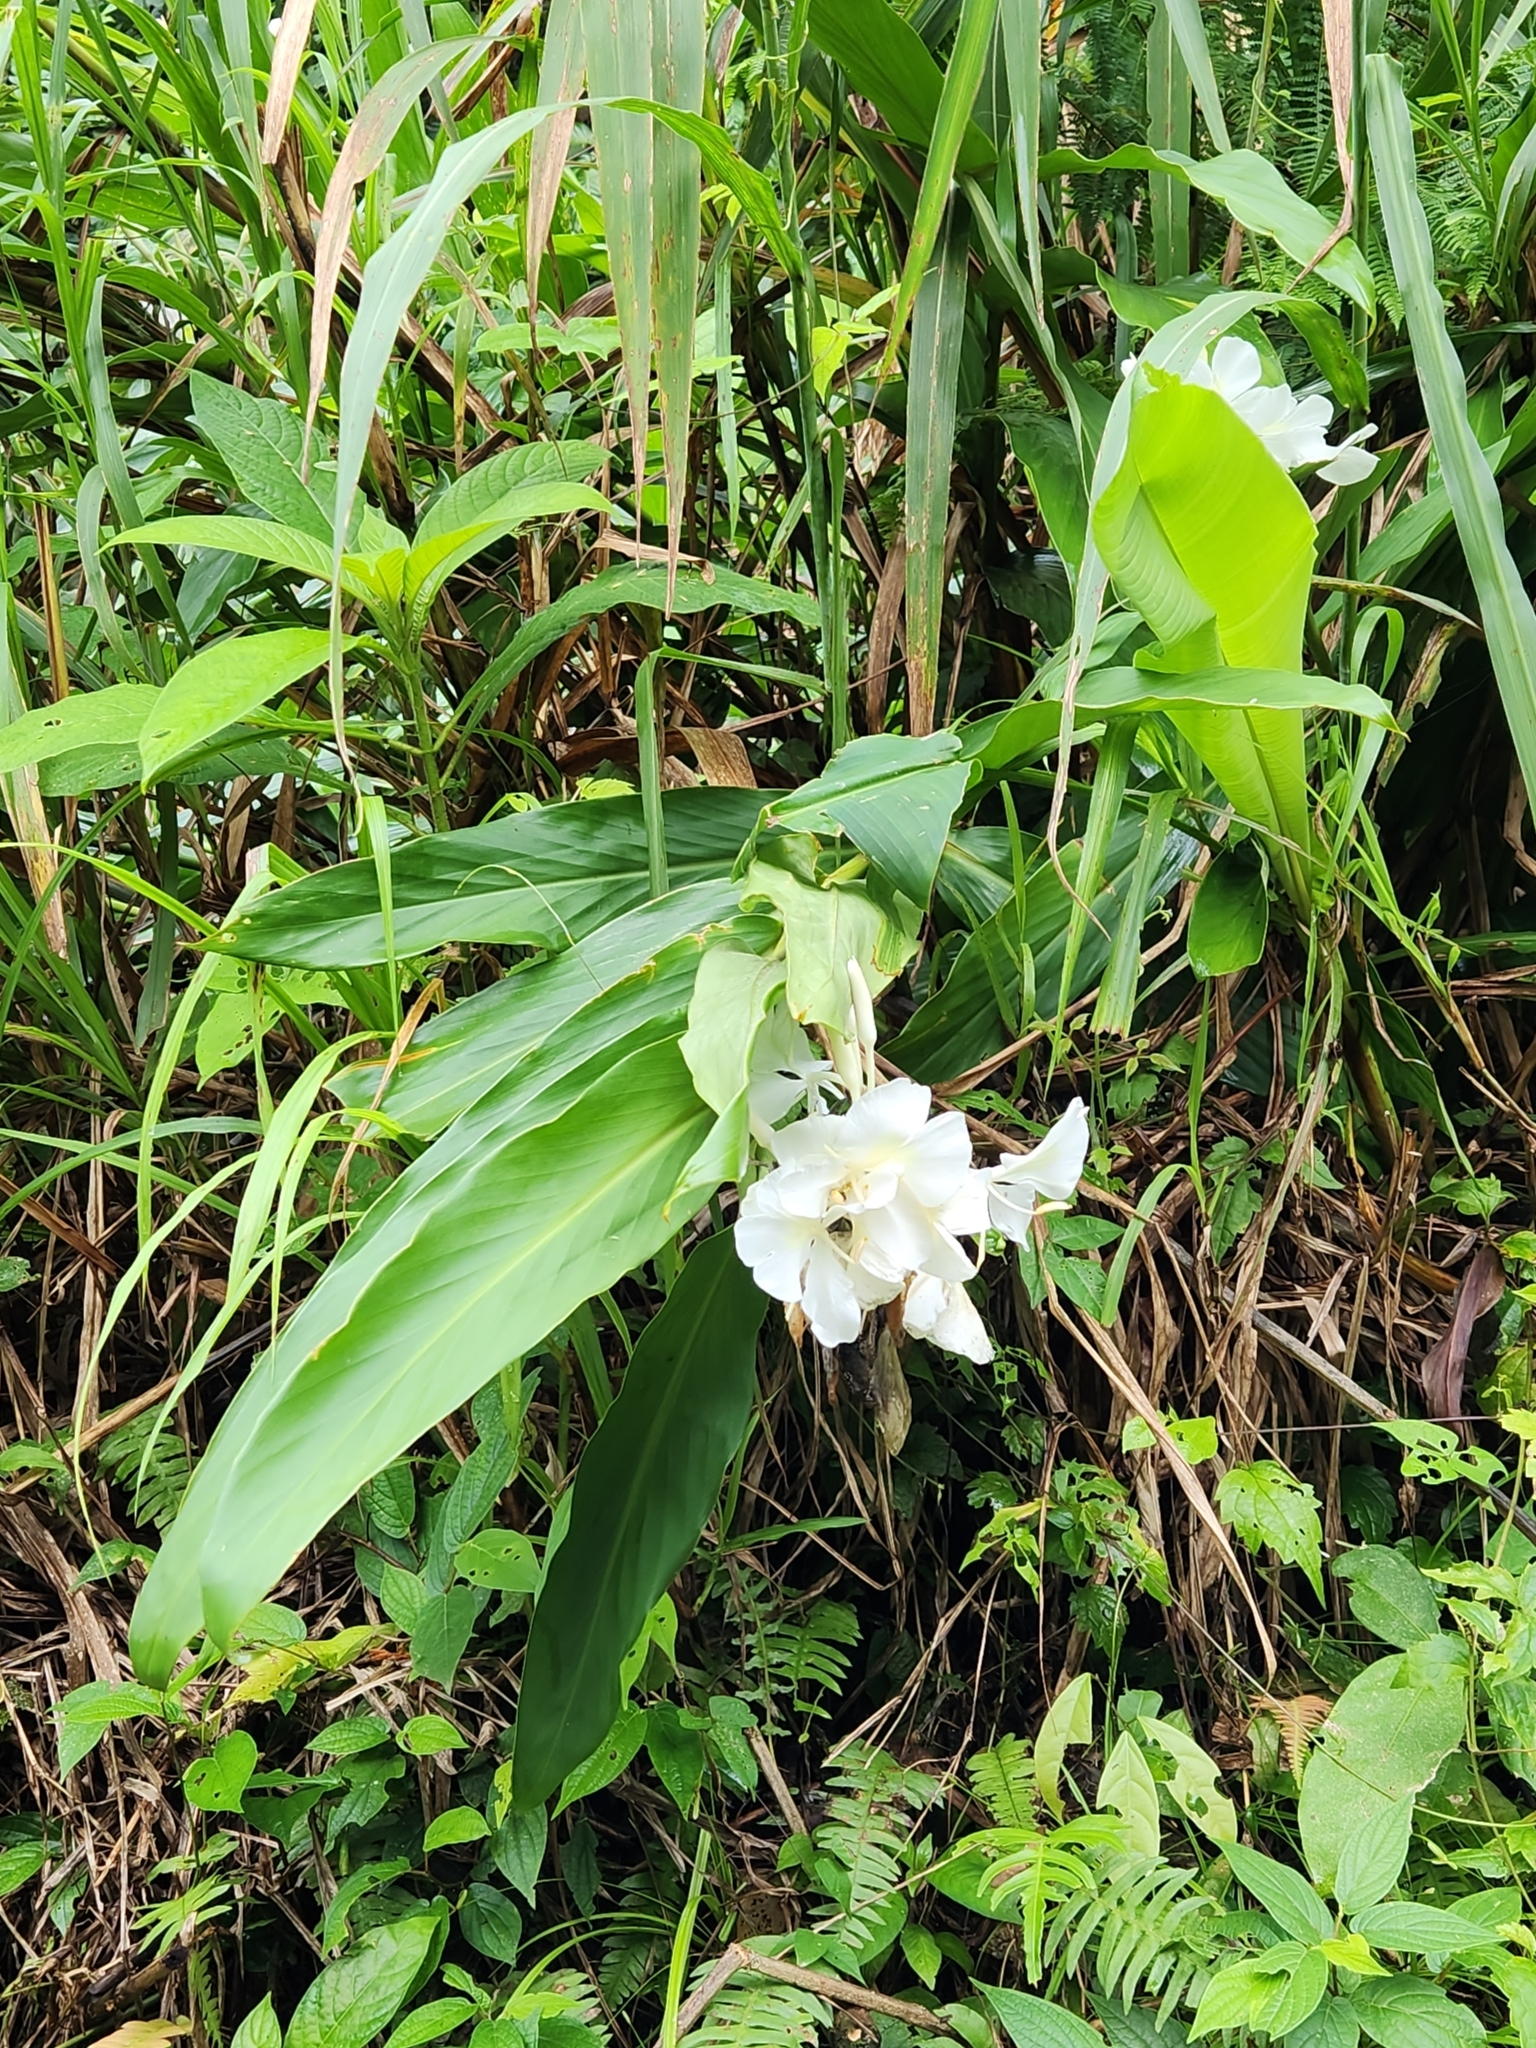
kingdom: Plantae
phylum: Tracheophyta
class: Liliopsida
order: Zingiberales
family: Zingiberaceae
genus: Hedychium
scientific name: Hedychium coronarium
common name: White garland-lily
